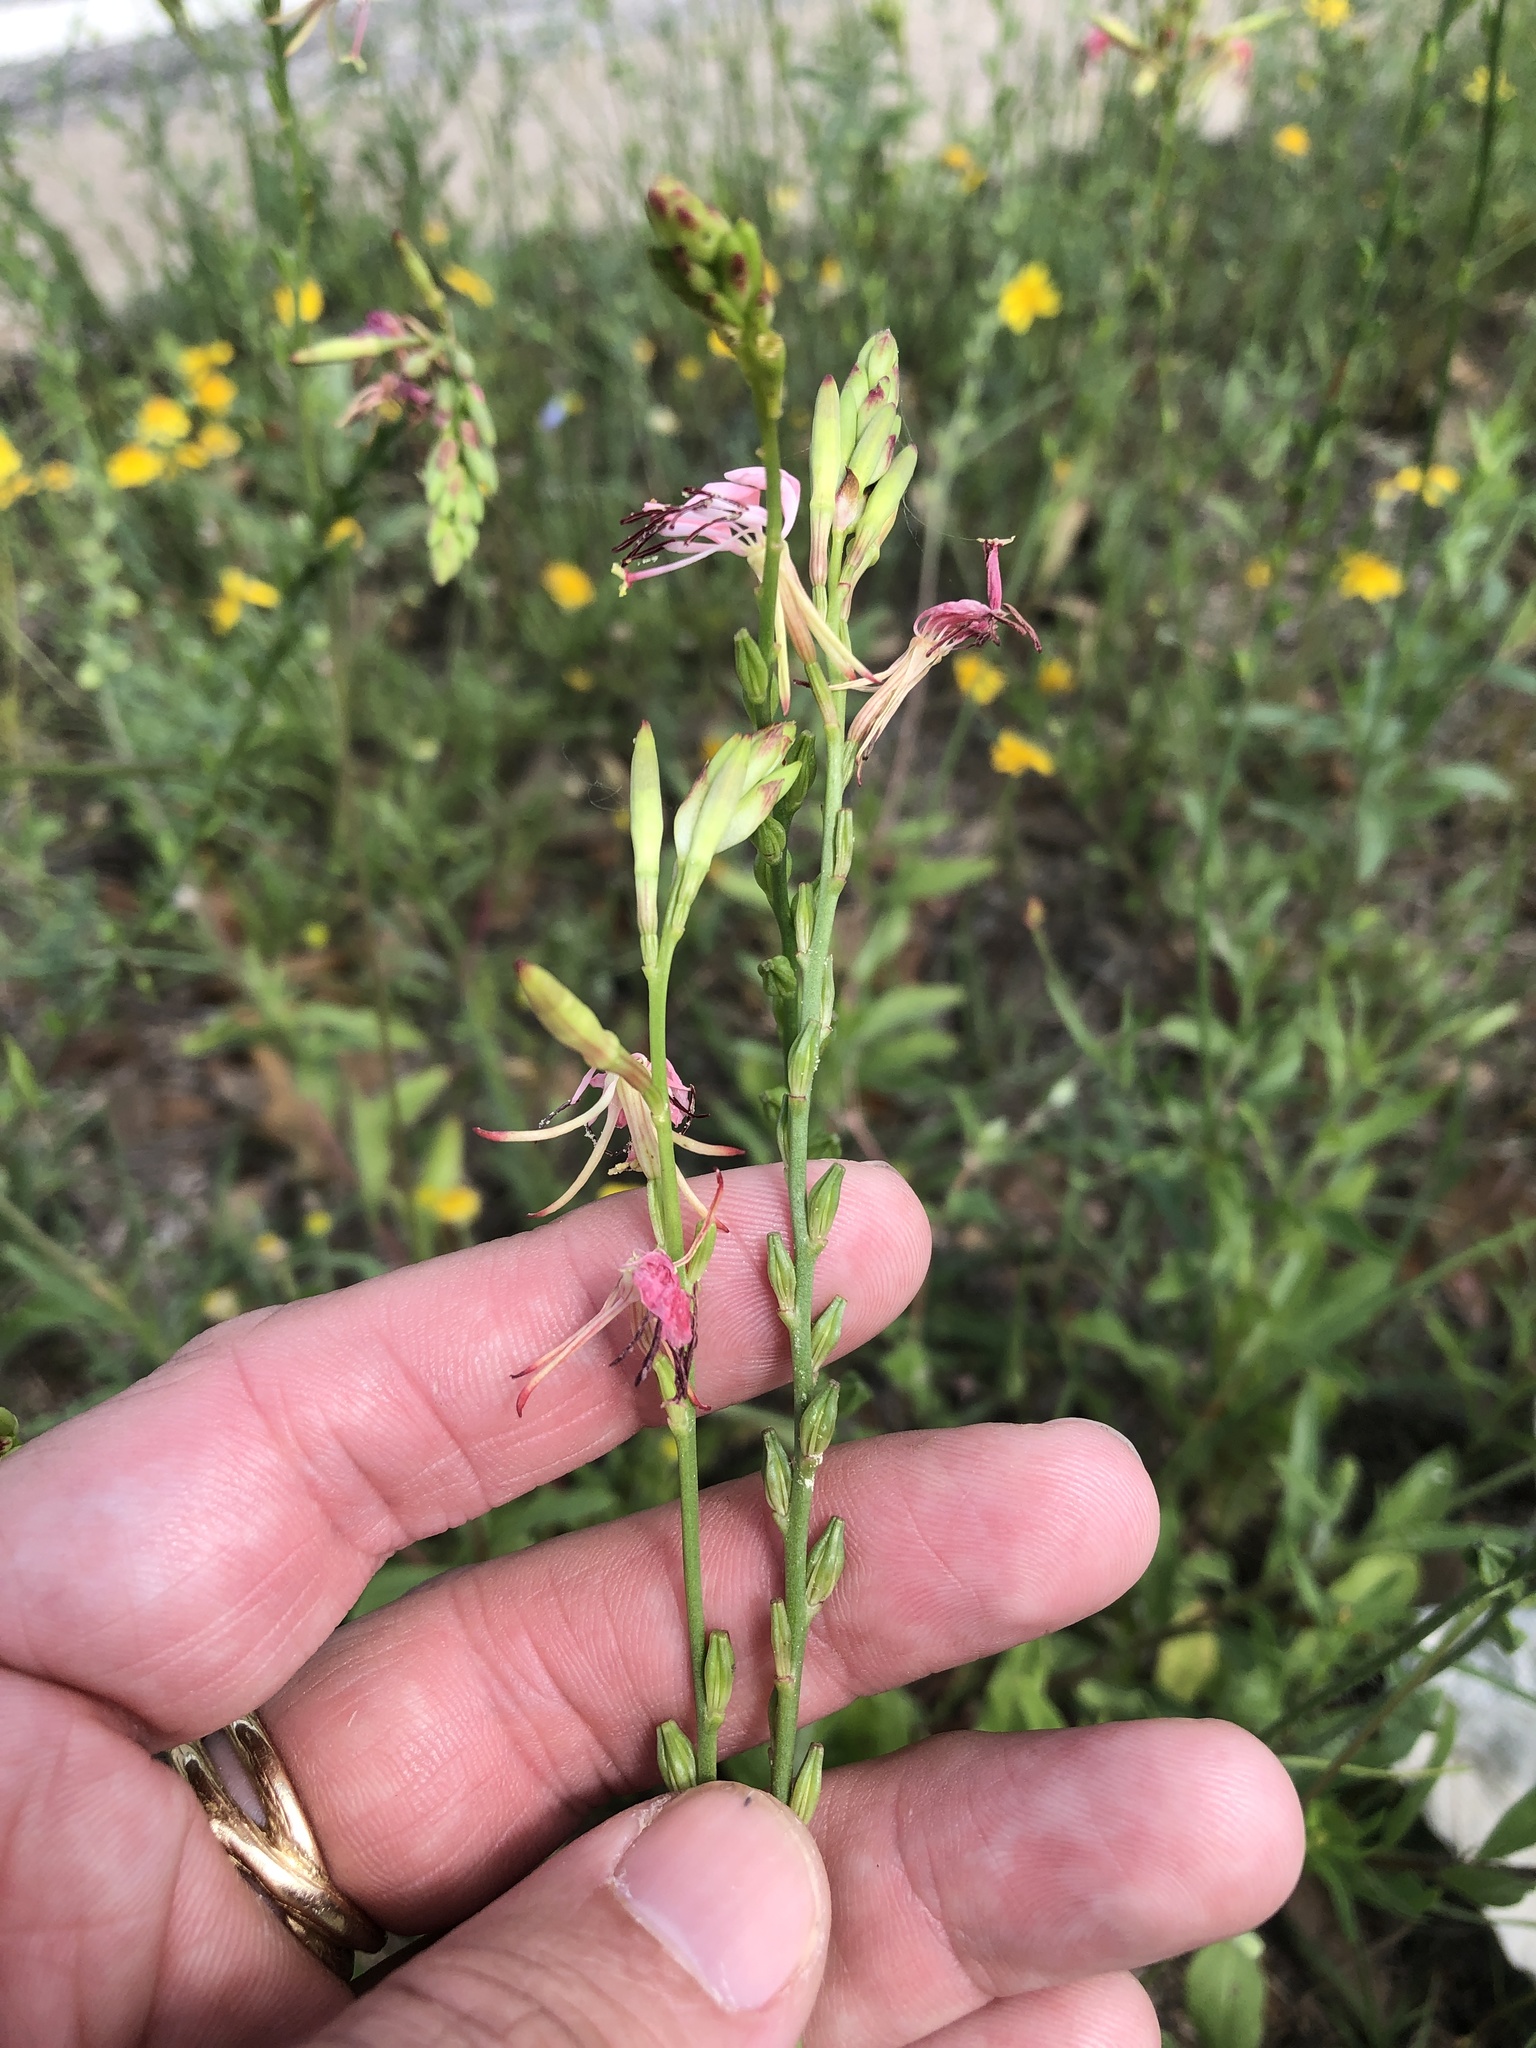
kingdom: Plantae
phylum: Tracheophyta
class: Magnoliopsida
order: Myrtales
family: Onagraceae
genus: Oenothera
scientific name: Oenothera suffulta
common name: Kisses
